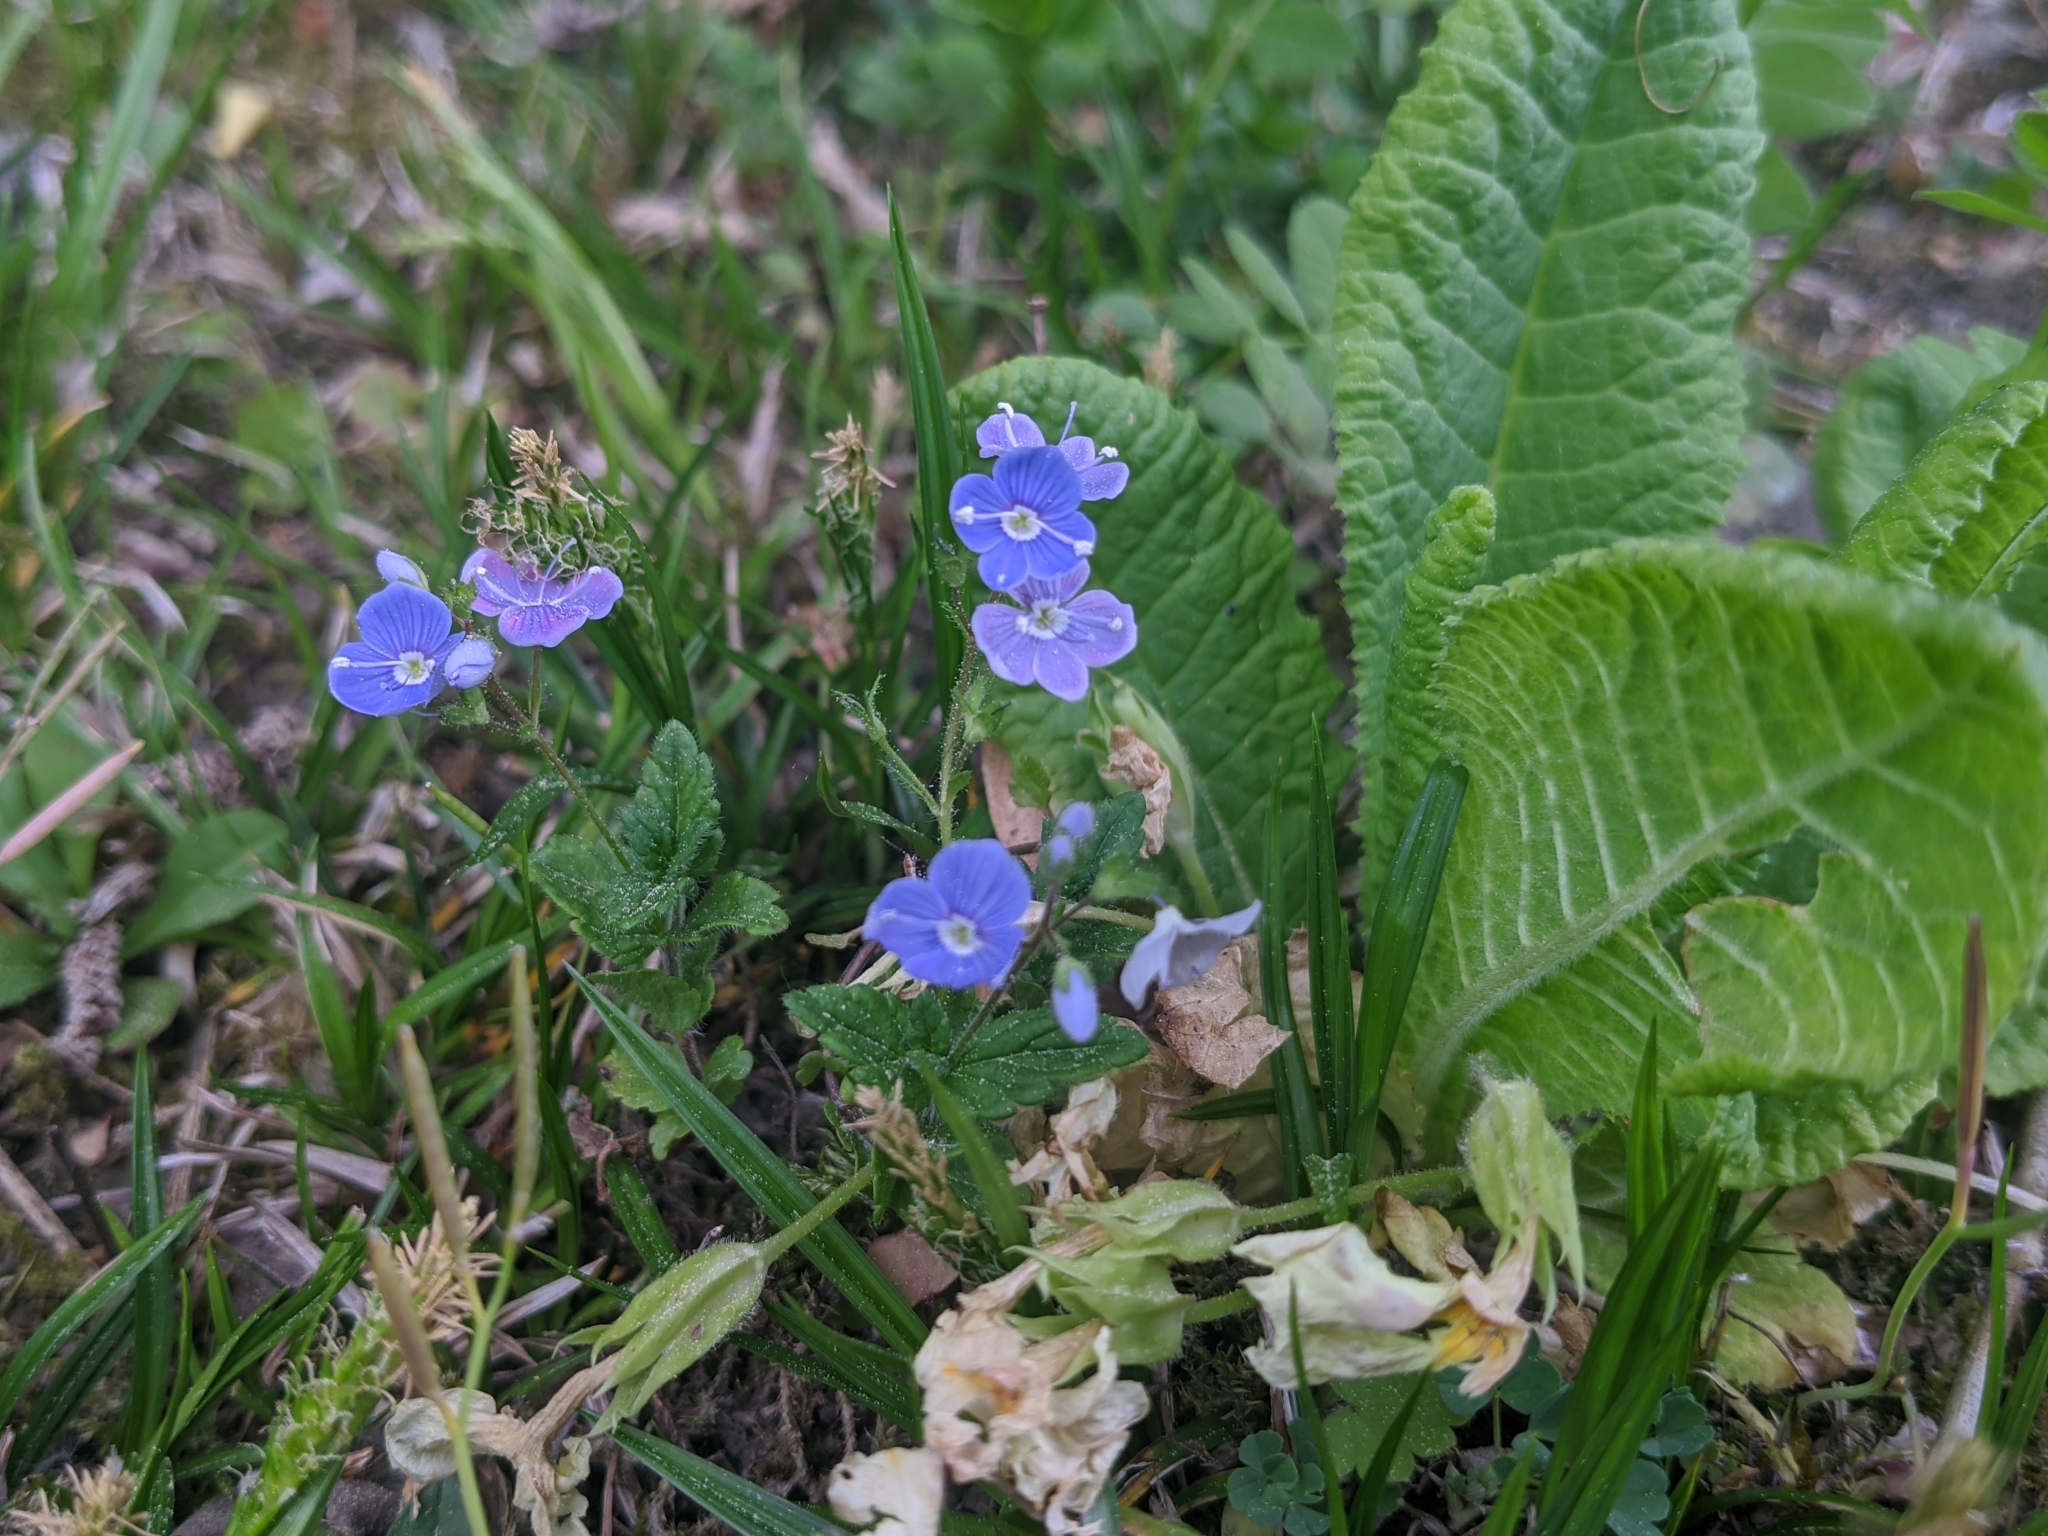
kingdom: Plantae
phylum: Tracheophyta
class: Magnoliopsida
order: Lamiales
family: Plantaginaceae
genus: Veronica
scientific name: Veronica chamaedrys
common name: Germander speedwell
